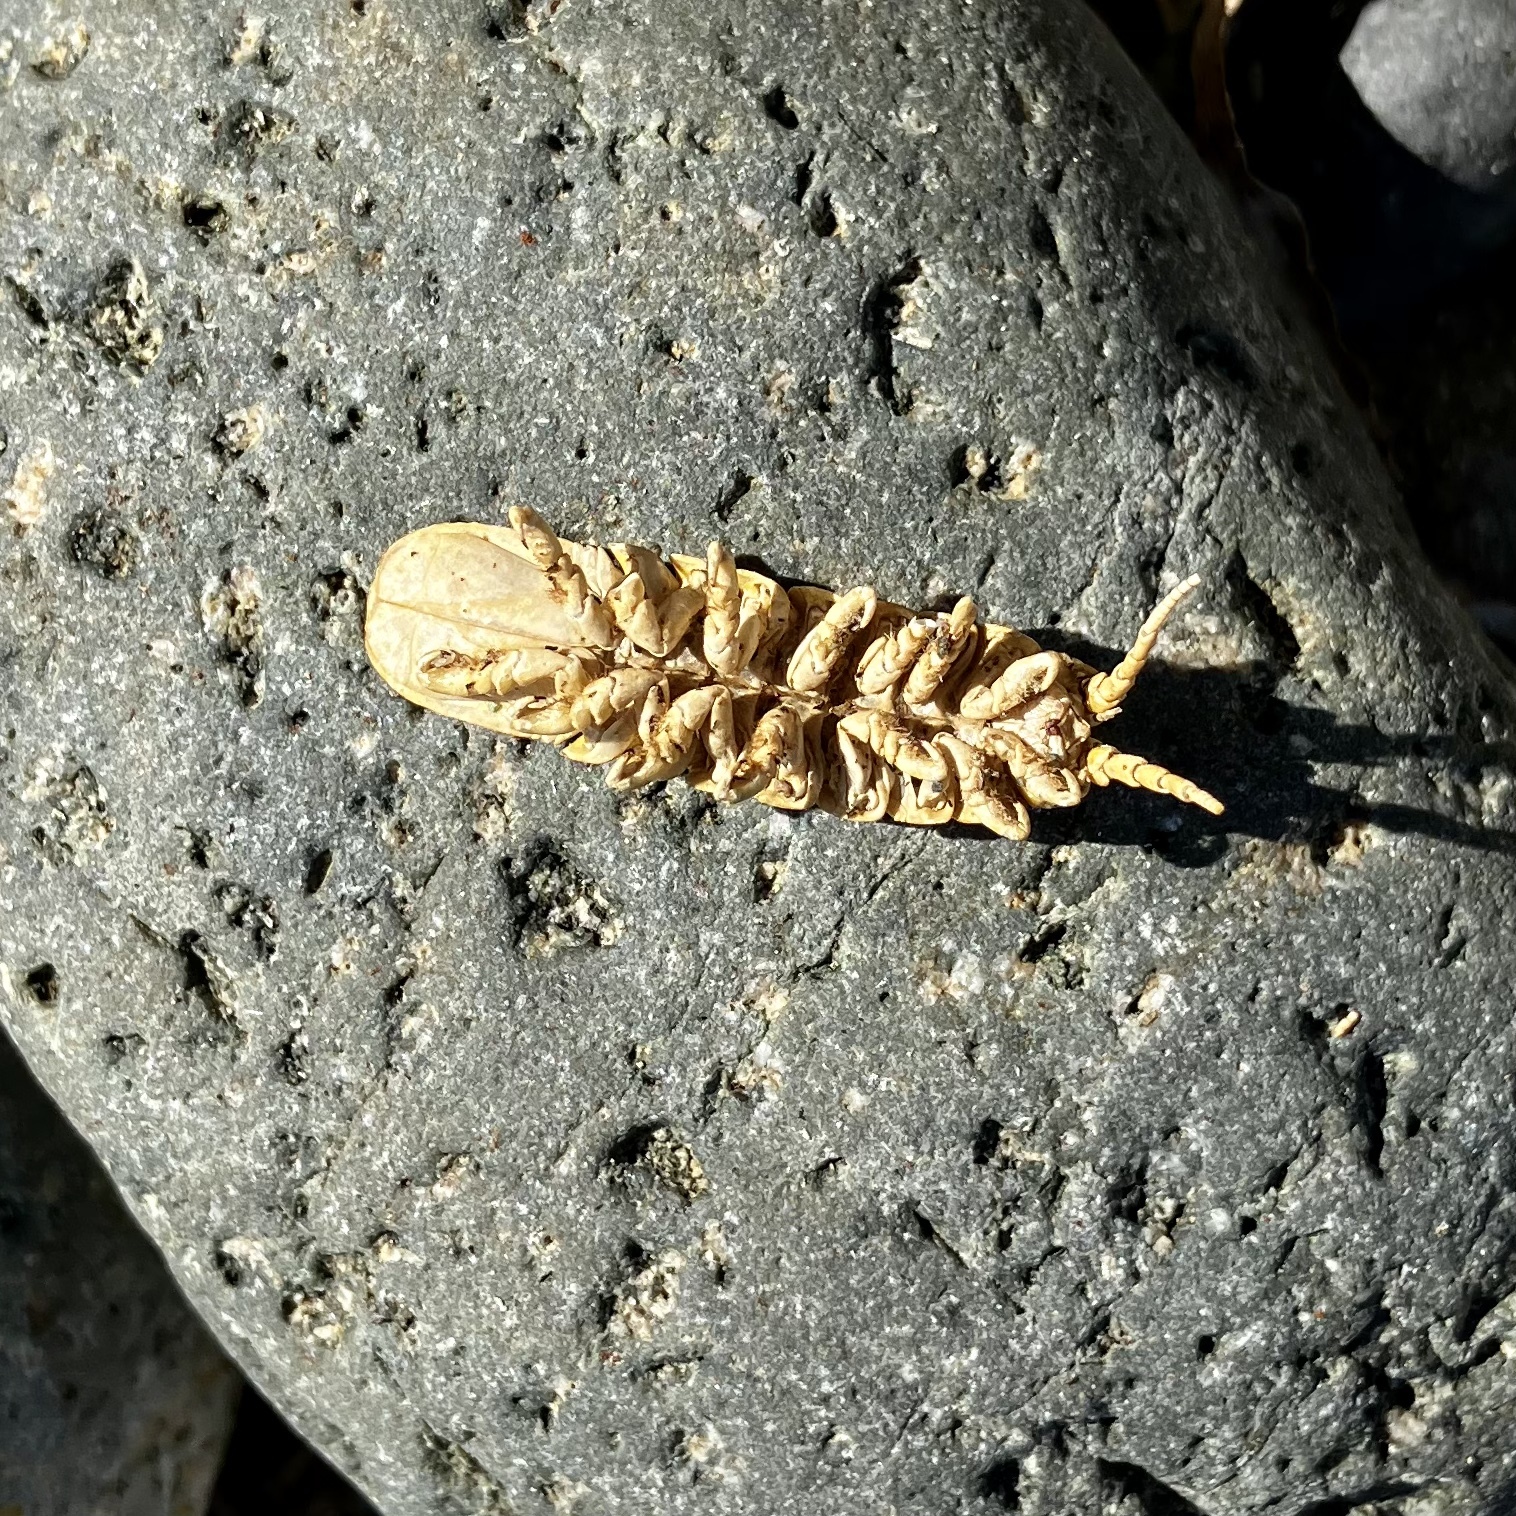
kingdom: Animalia
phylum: Arthropoda
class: Malacostraca
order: Isopoda
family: Idoteidae
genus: Pentidotea
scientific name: Pentidotea wosnesenskii
